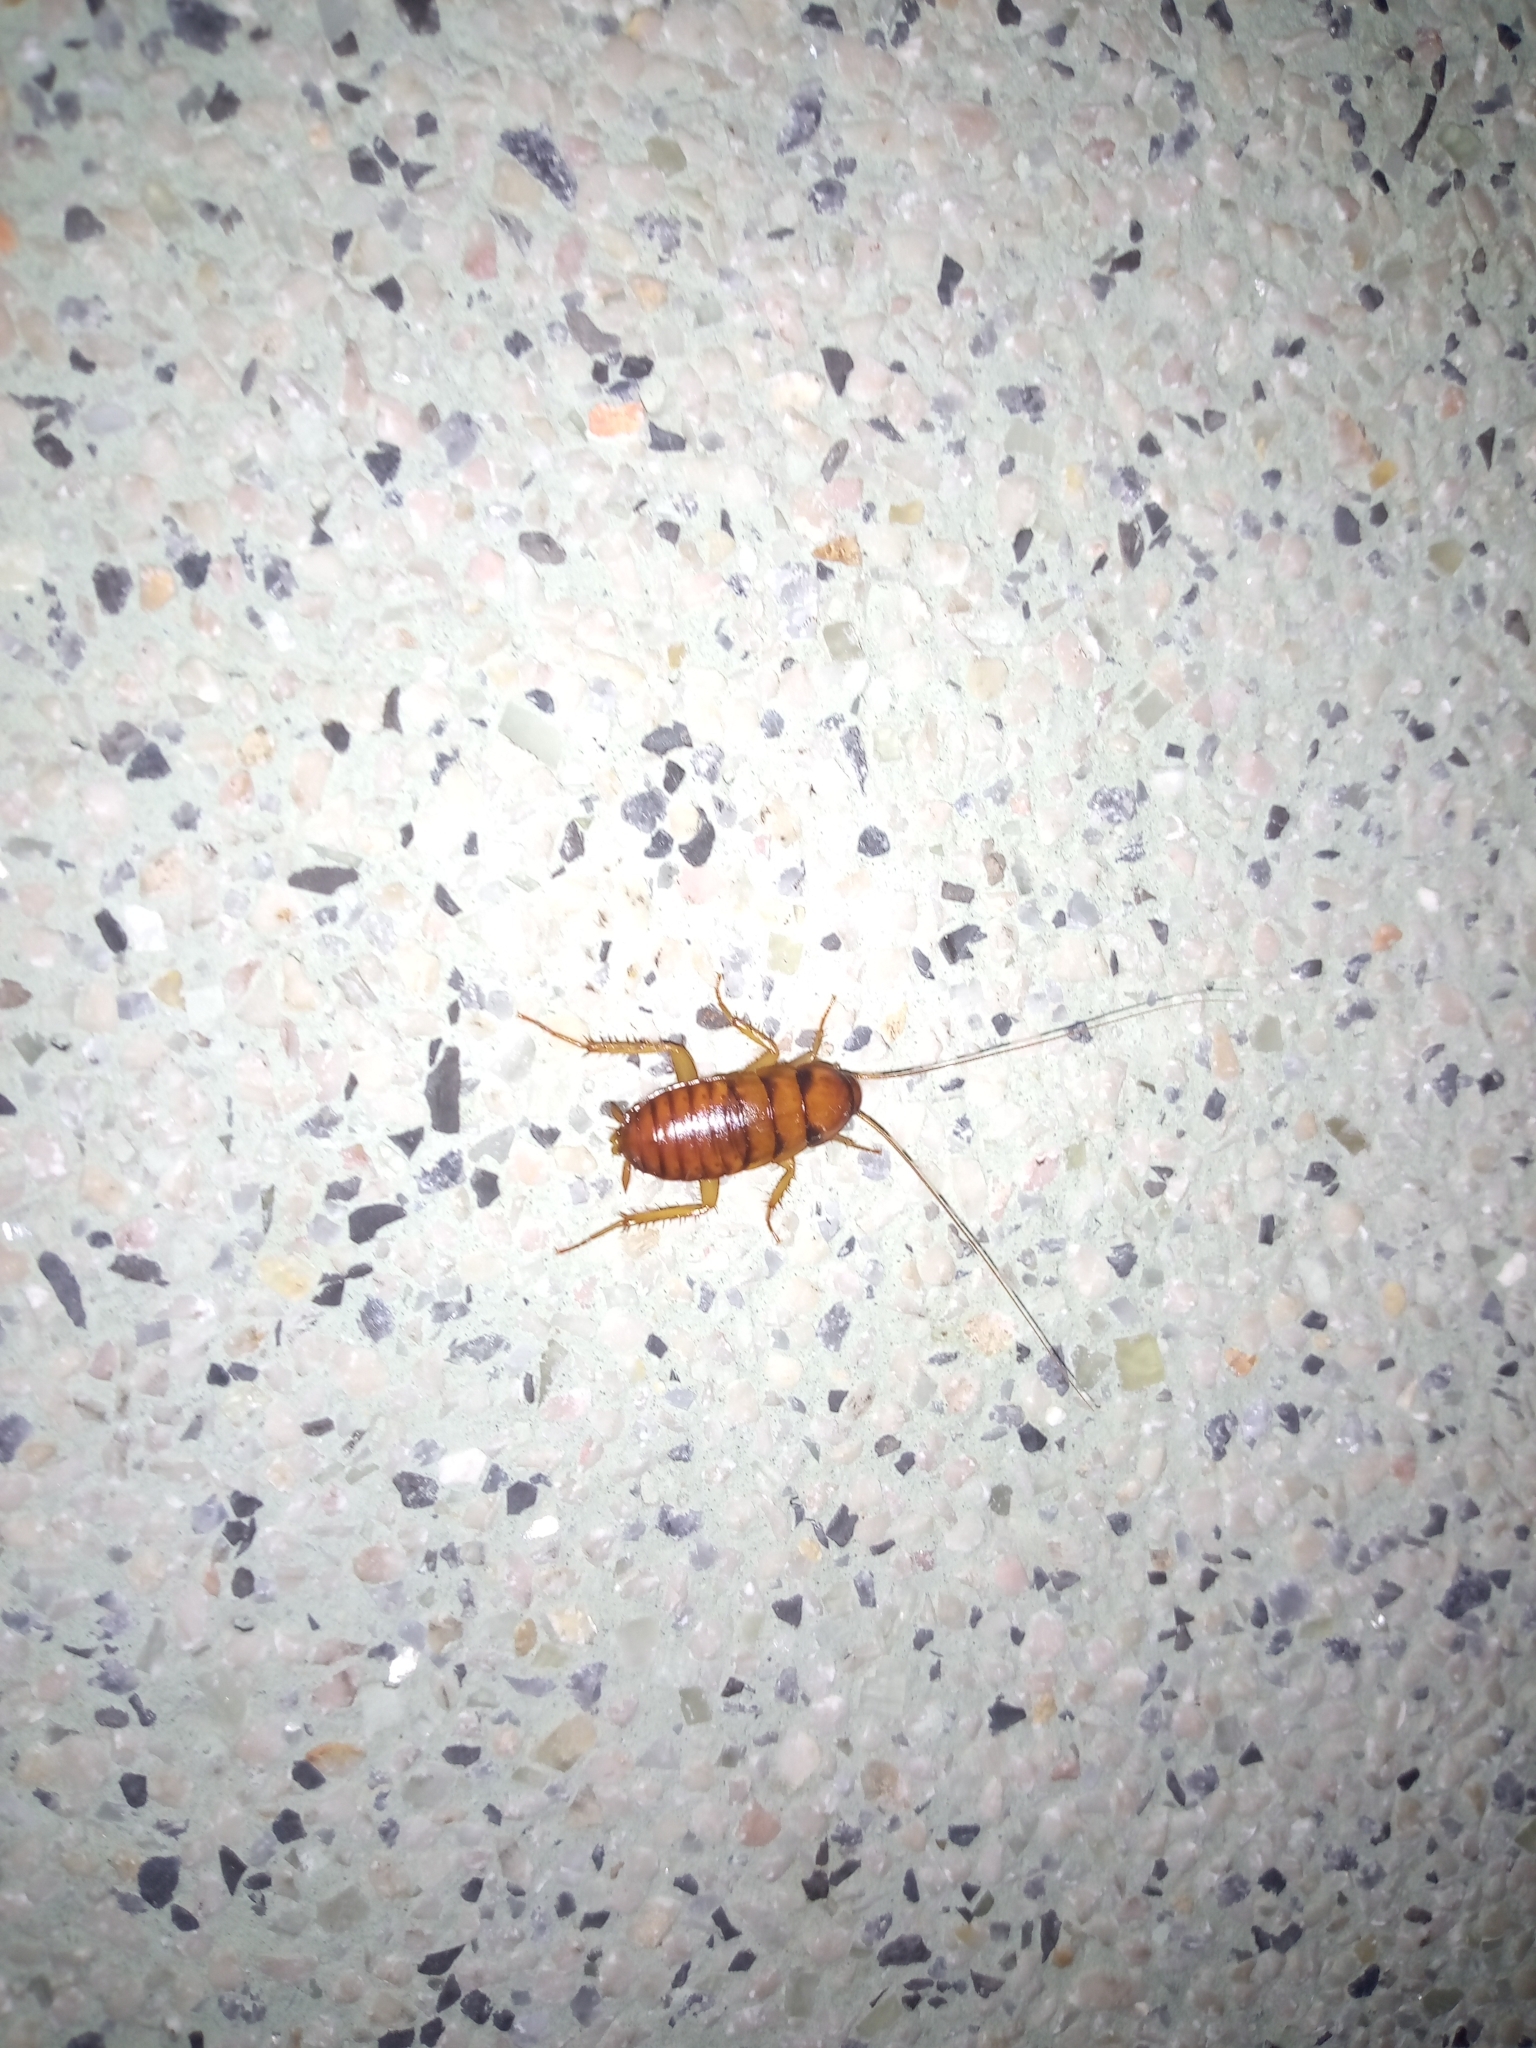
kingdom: Animalia
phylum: Arthropoda
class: Insecta
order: Blattodea
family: Blattidae
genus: Periplaneta
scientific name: Periplaneta americana
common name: American cockroach
